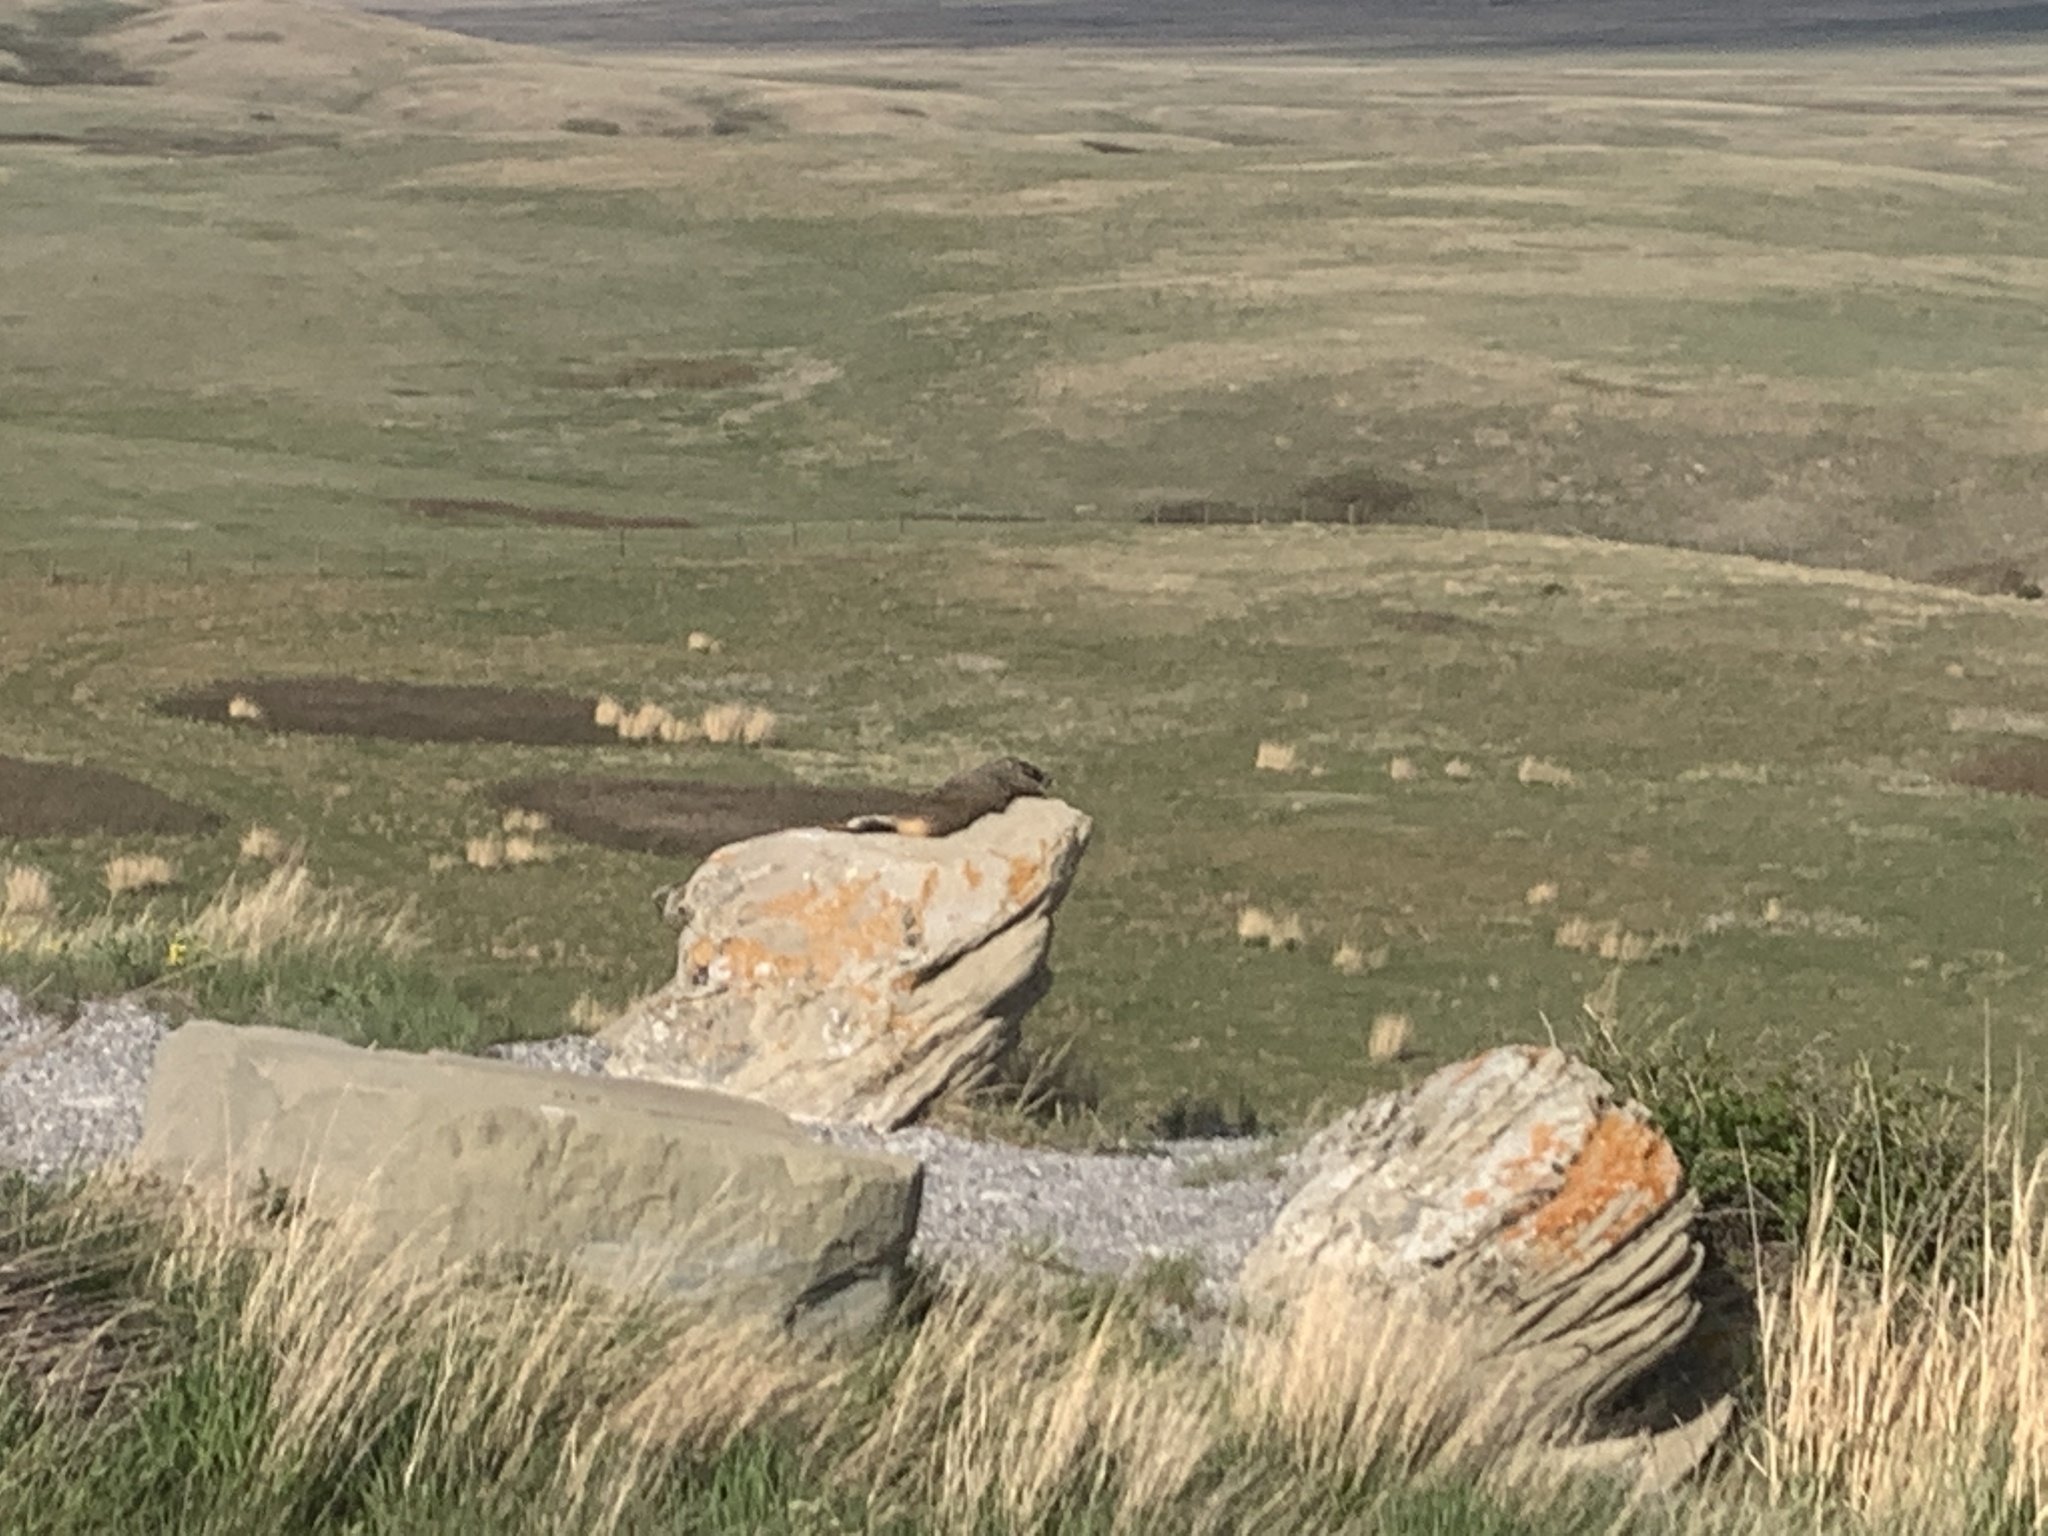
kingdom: Animalia
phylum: Chordata
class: Mammalia
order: Rodentia
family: Sciuridae
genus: Marmota
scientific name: Marmota flaviventris
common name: Yellow-bellied marmot
